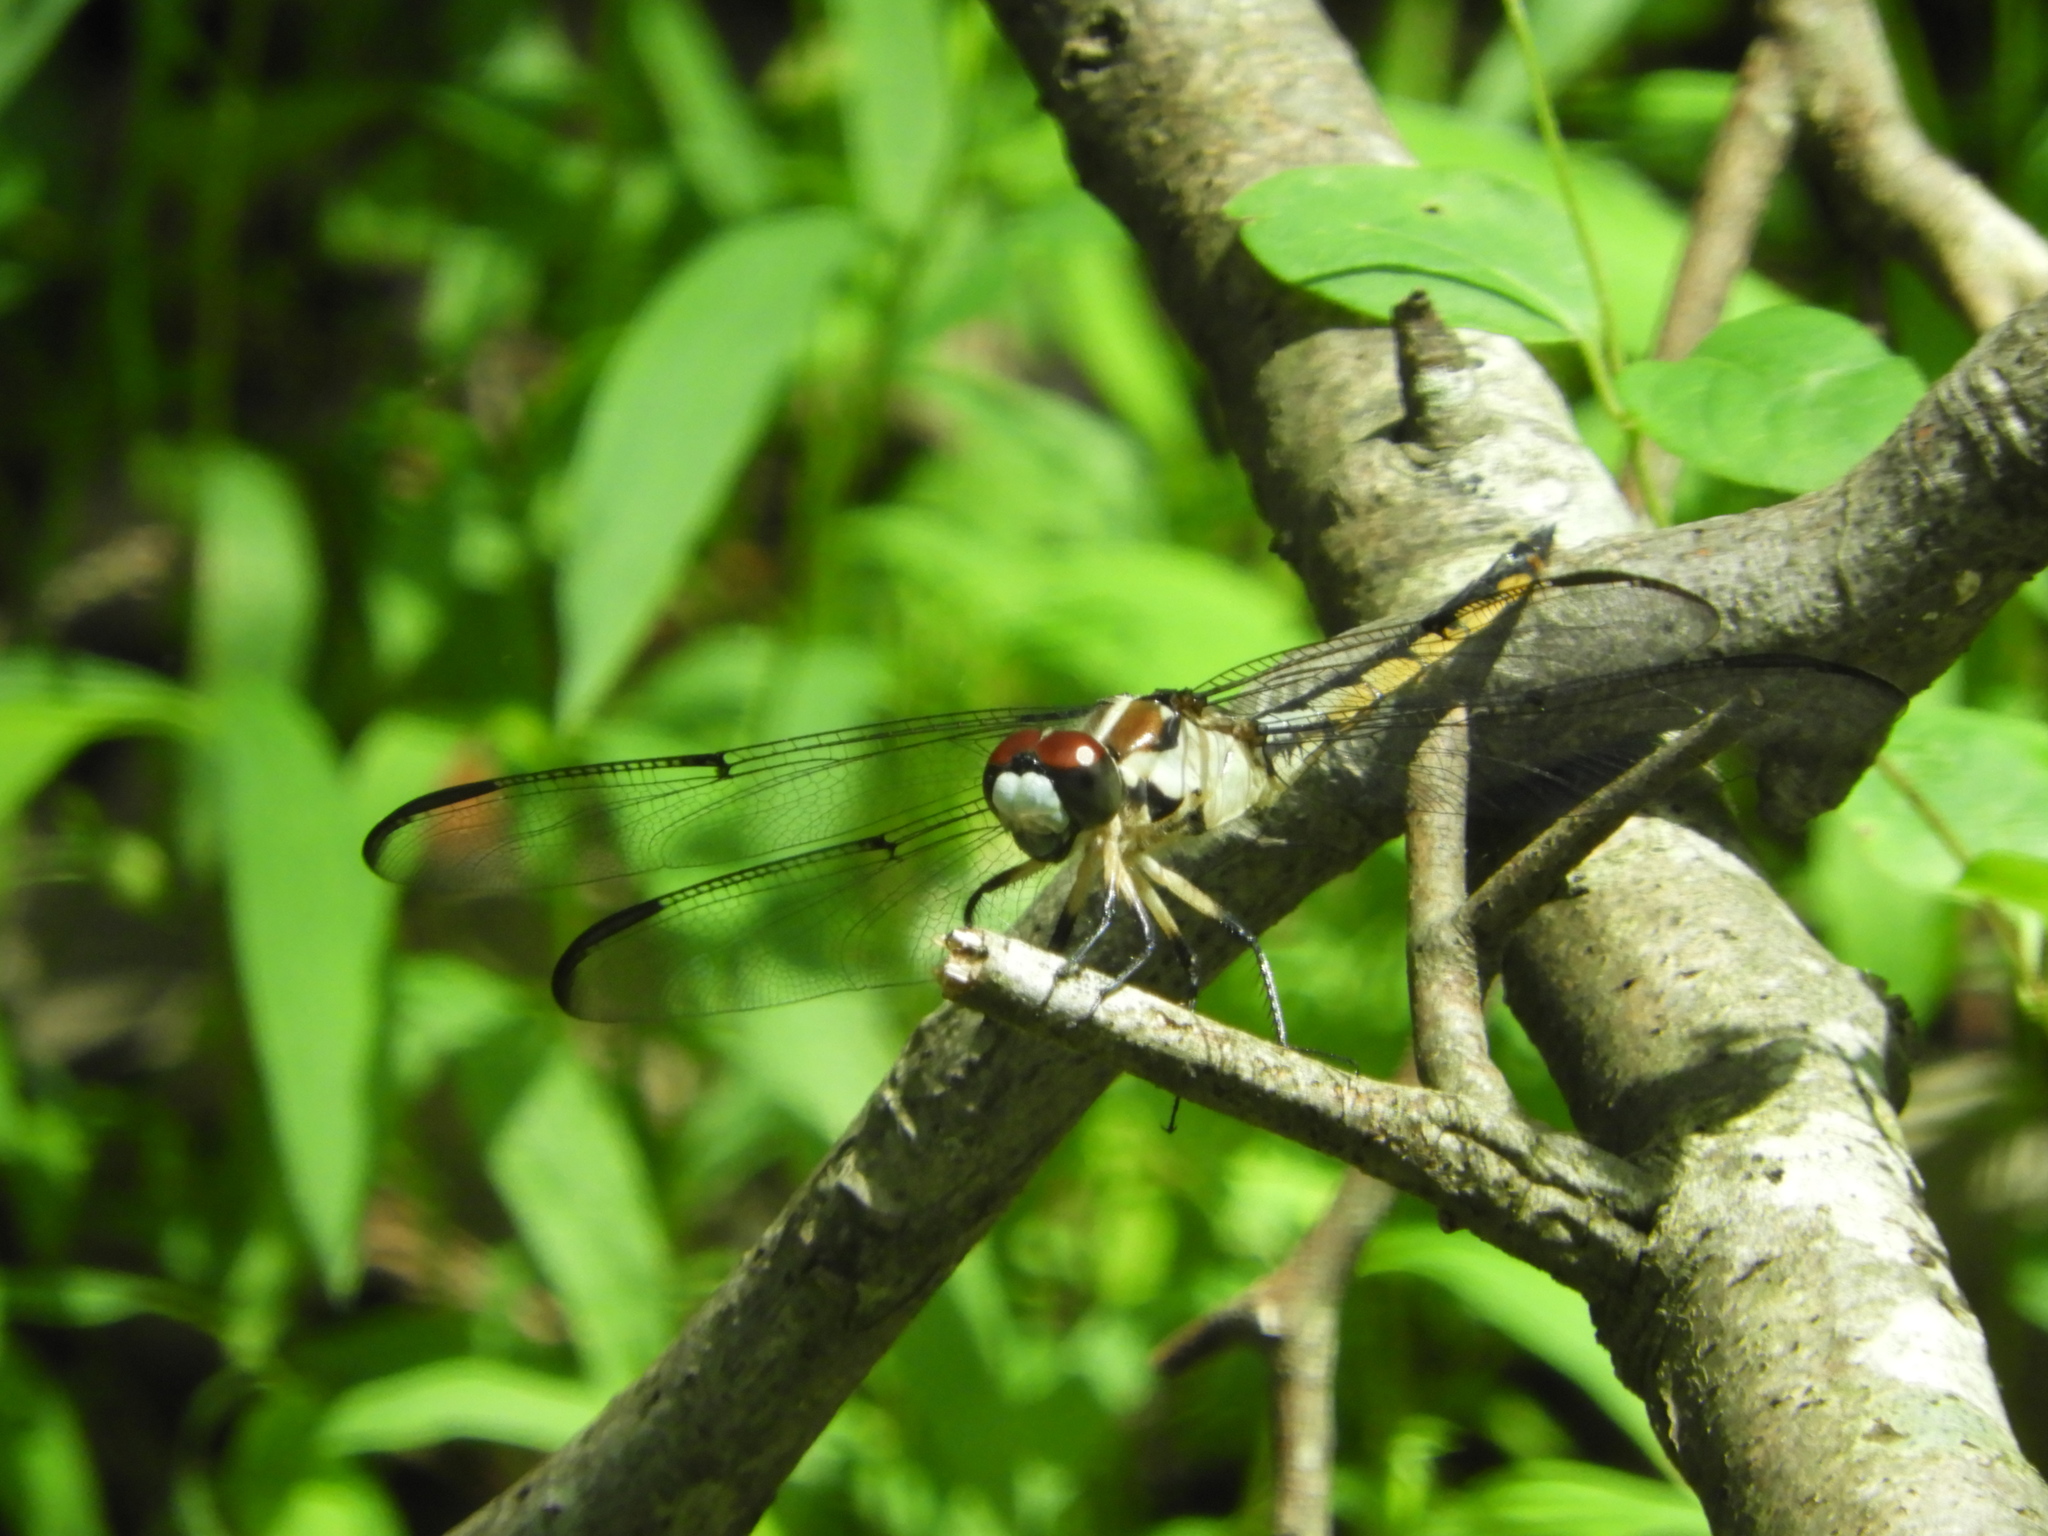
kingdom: Animalia
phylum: Arthropoda
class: Insecta
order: Odonata
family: Libellulidae
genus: Libellula
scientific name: Libellula vibrans
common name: Great blue skimmer
